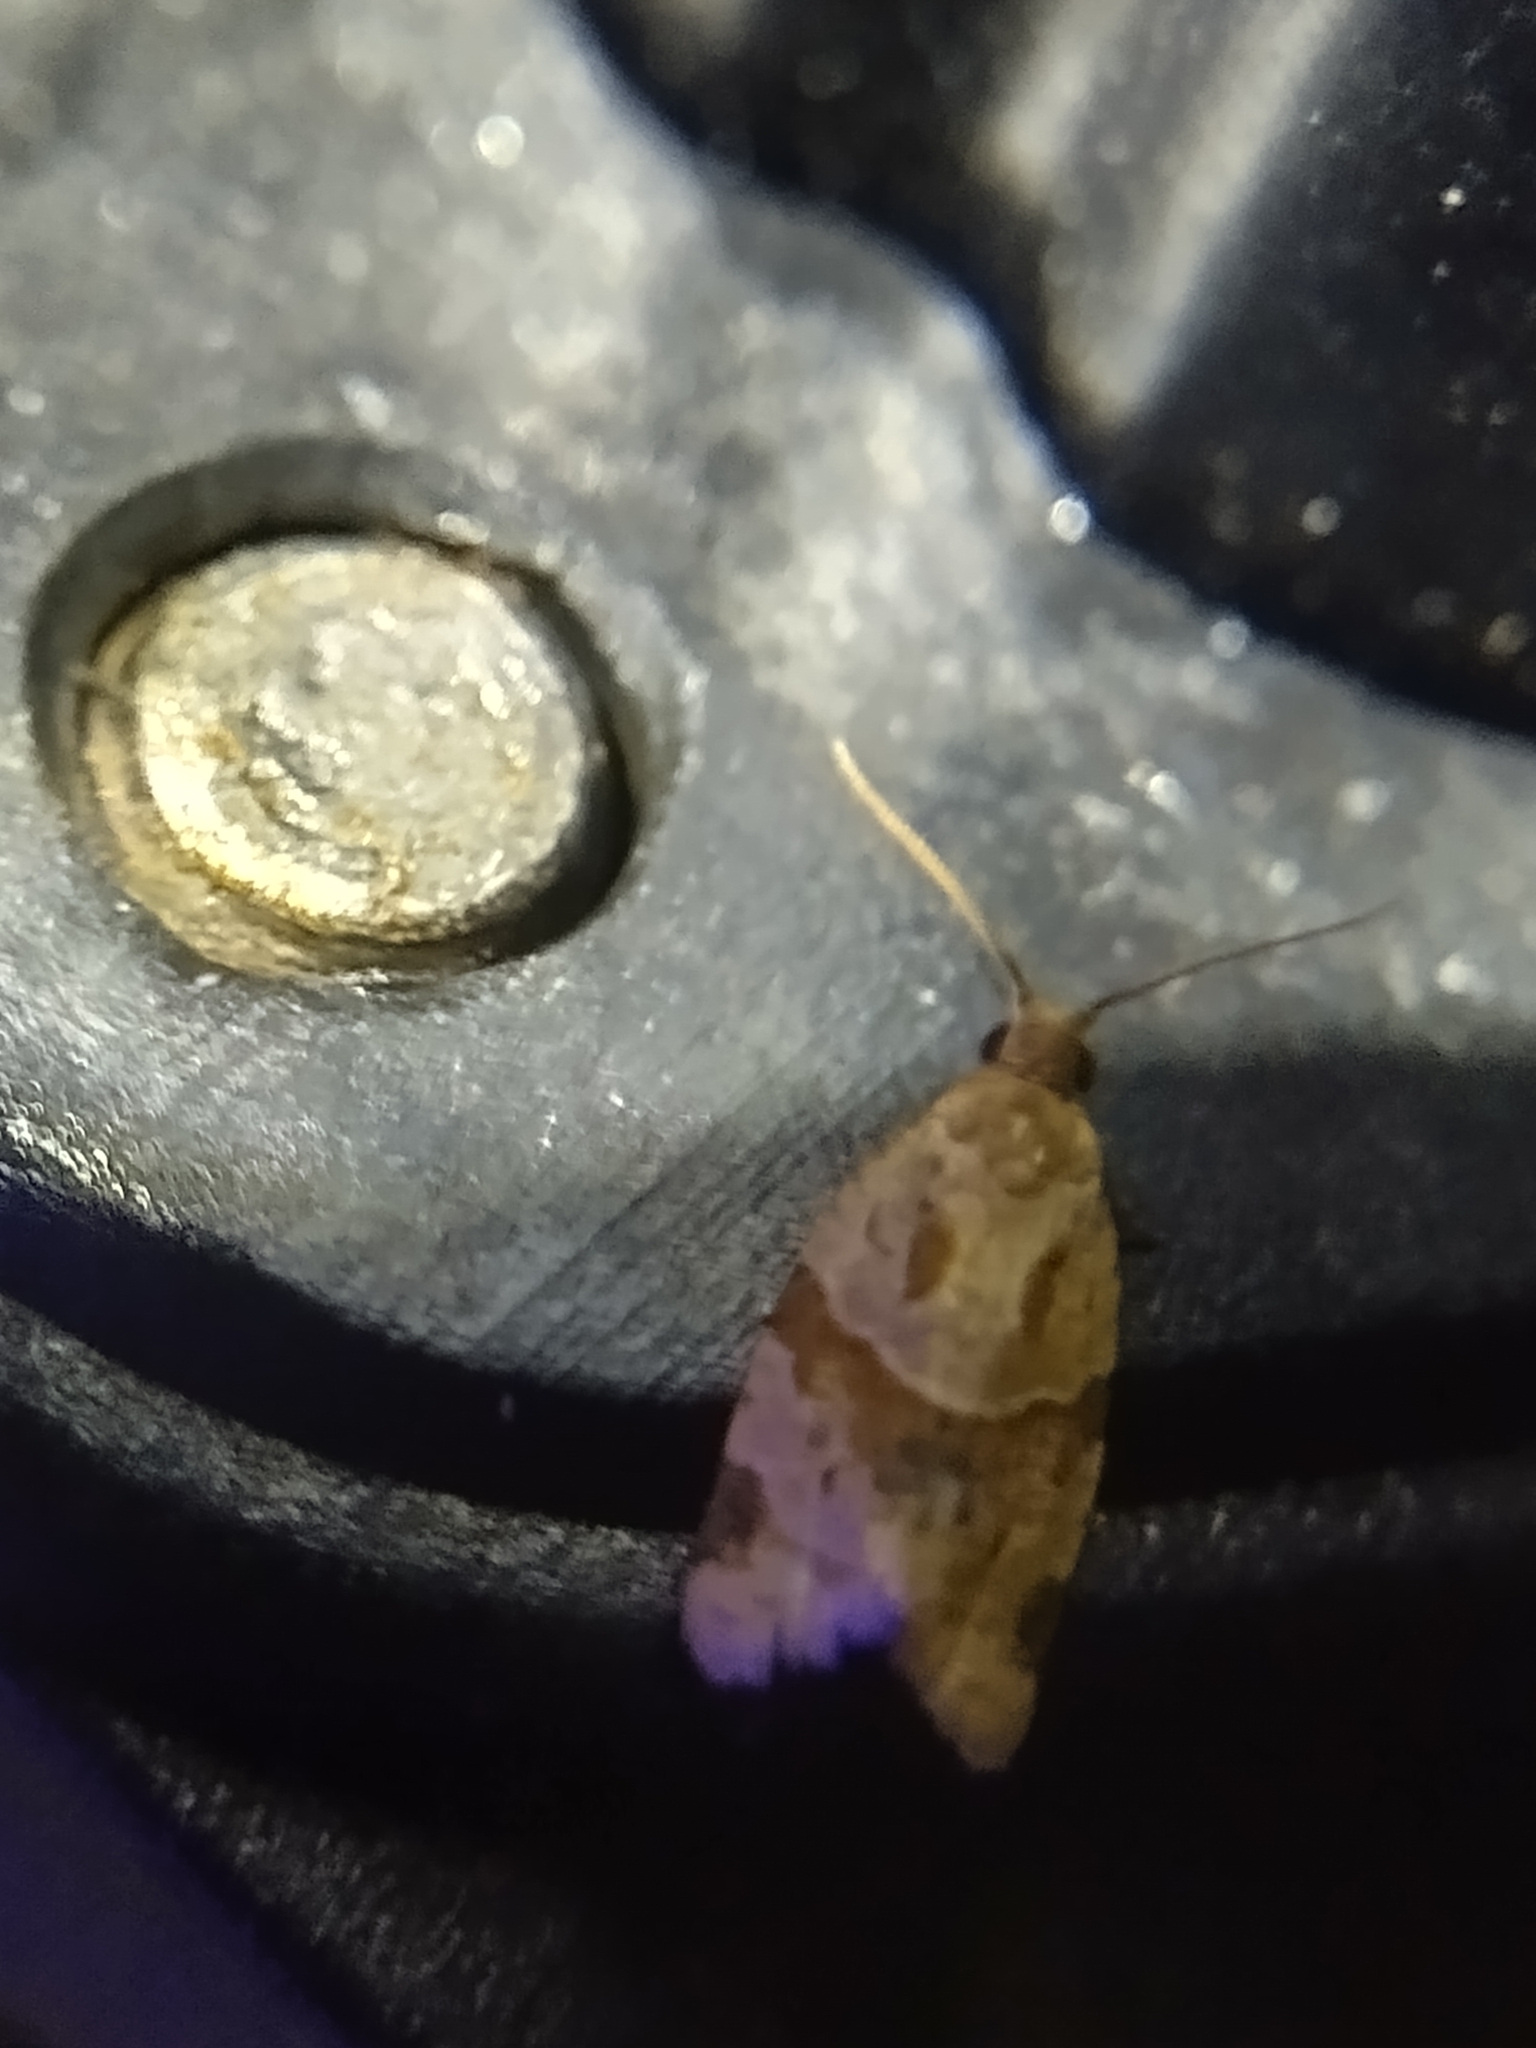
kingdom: Animalia
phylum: Arthropoda
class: Insecta
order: Lepidoptera
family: Tortricidae
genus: Clepsis
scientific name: Clepsis peritana
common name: Garden tortrix
